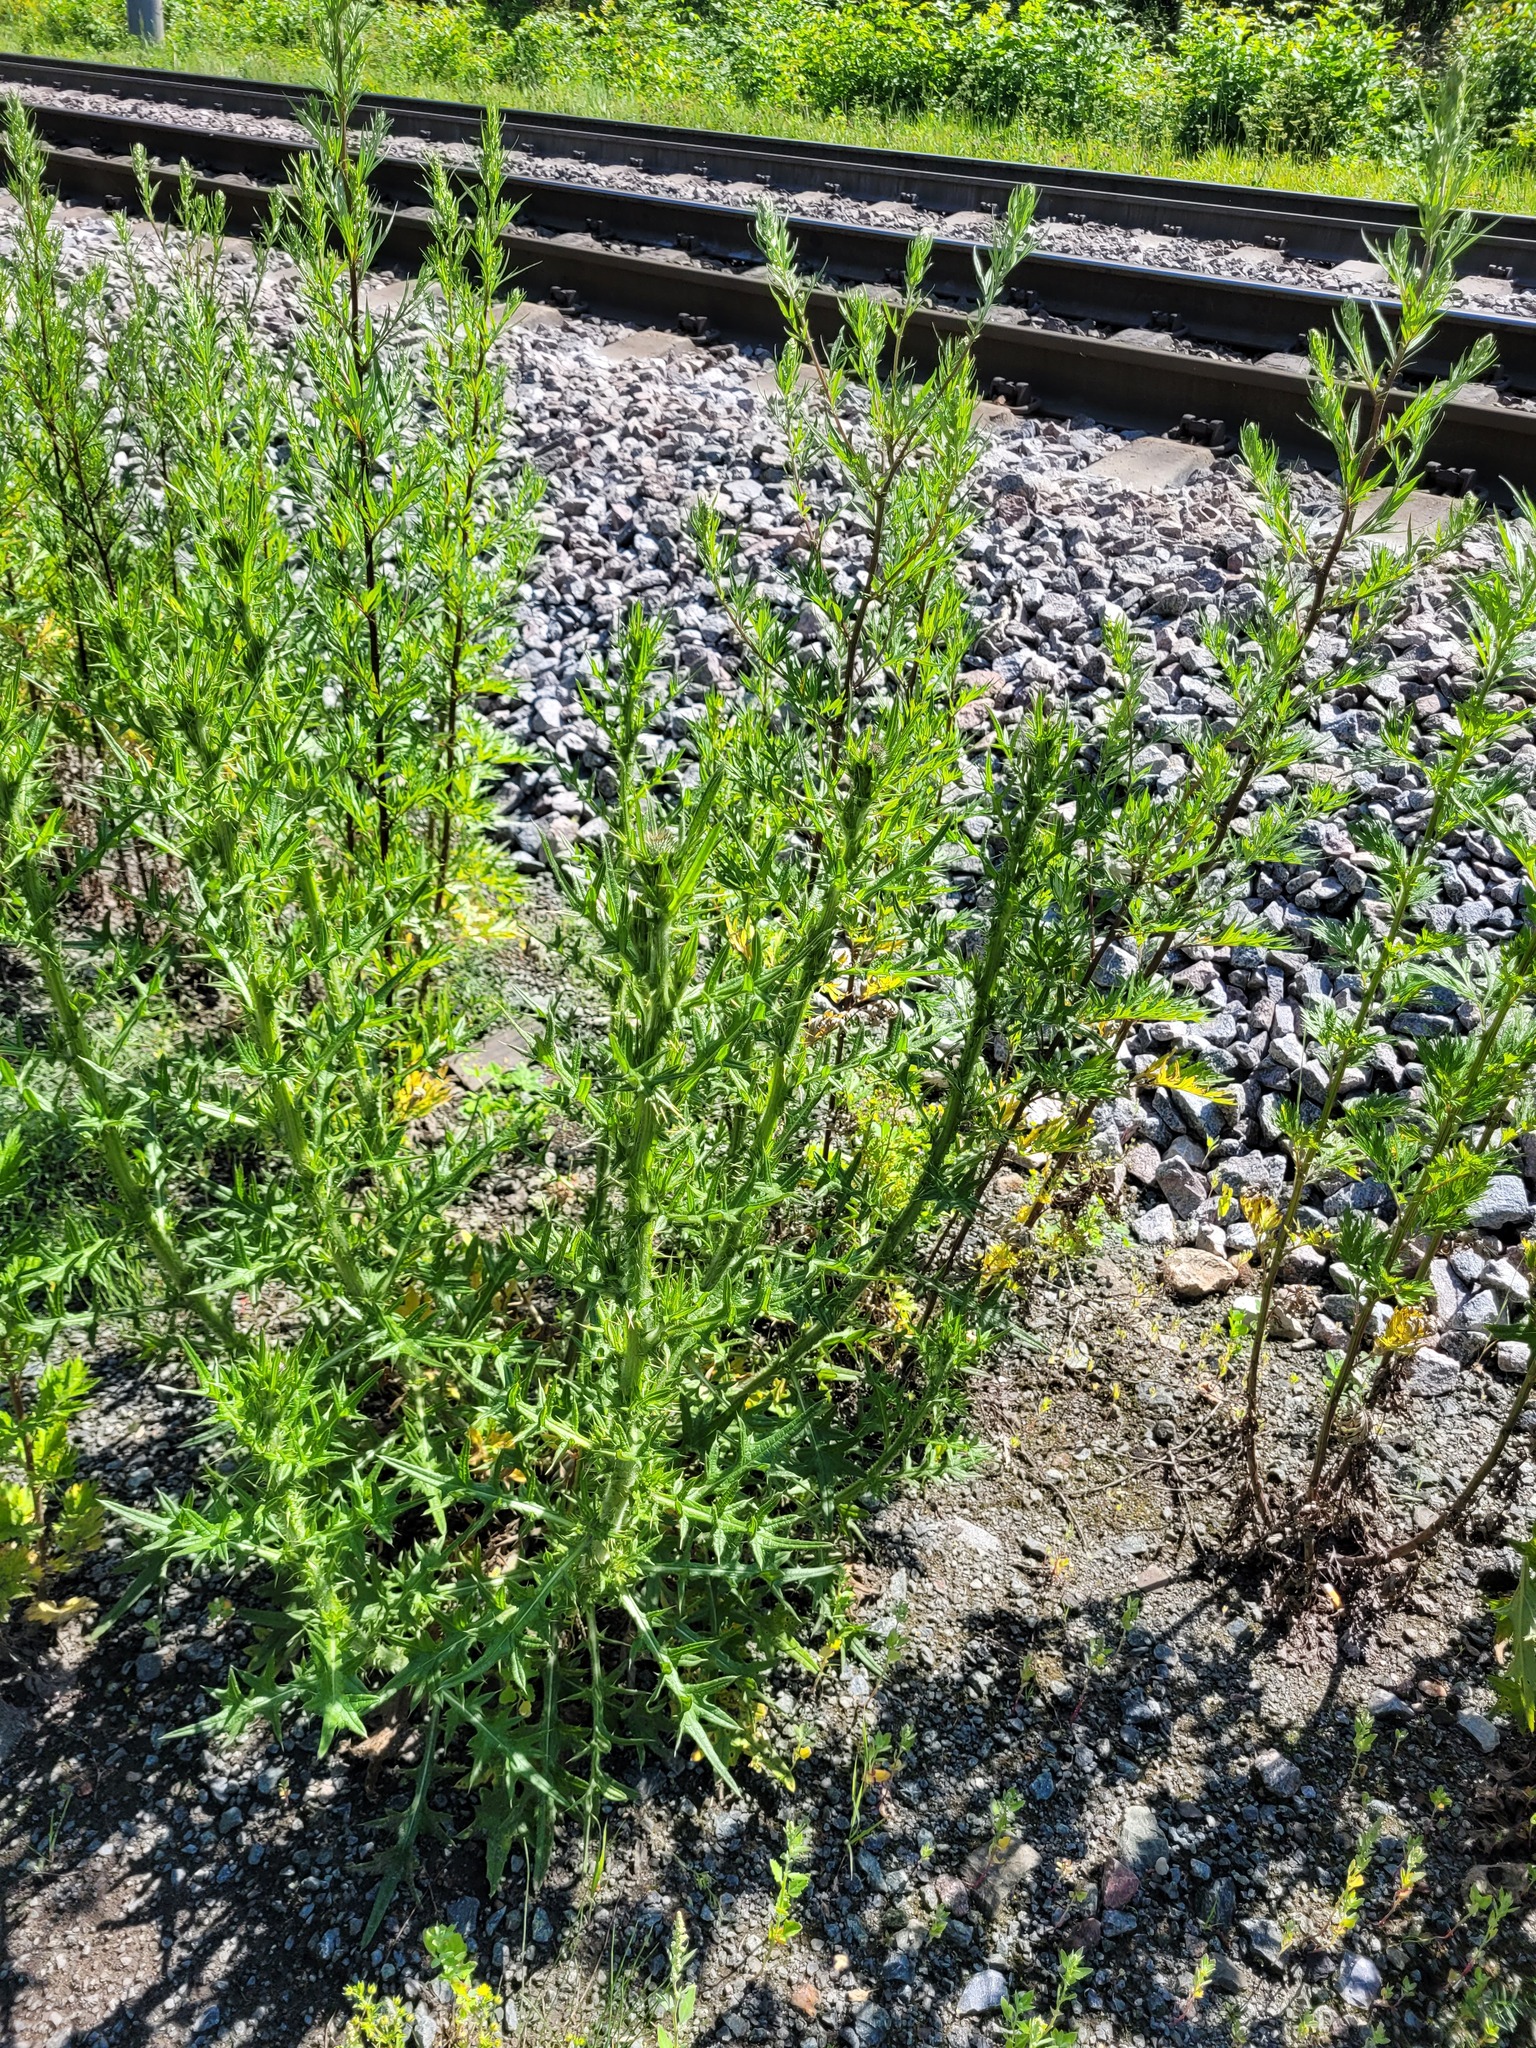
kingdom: Plantae
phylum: Tracheophyta
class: Magnoliopsida
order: Asterales
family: Asteraceae
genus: Cirsium
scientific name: Cirsium vulgare
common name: Bull thistle
